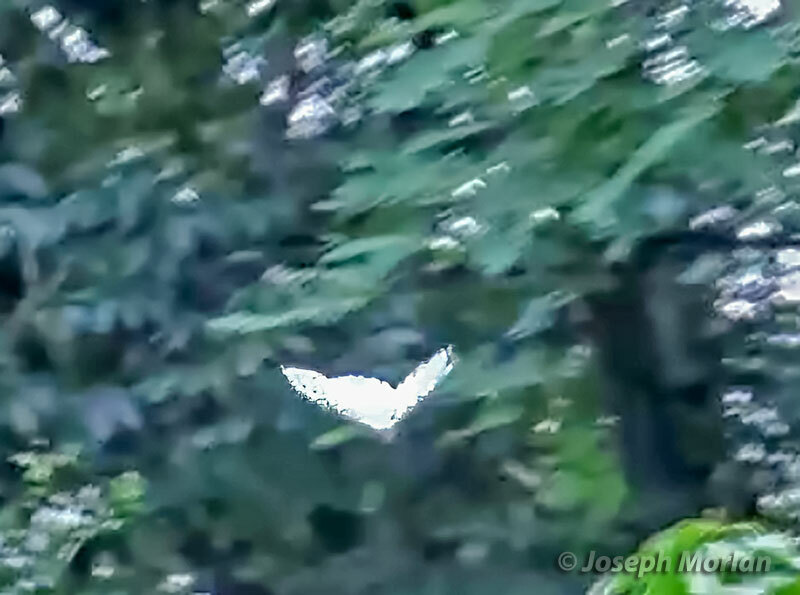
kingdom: Animalia
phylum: Arthropoda
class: Insecta
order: Lepidoptera
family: Nymphalidae
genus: Morpho
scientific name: Morpho epistrophus
